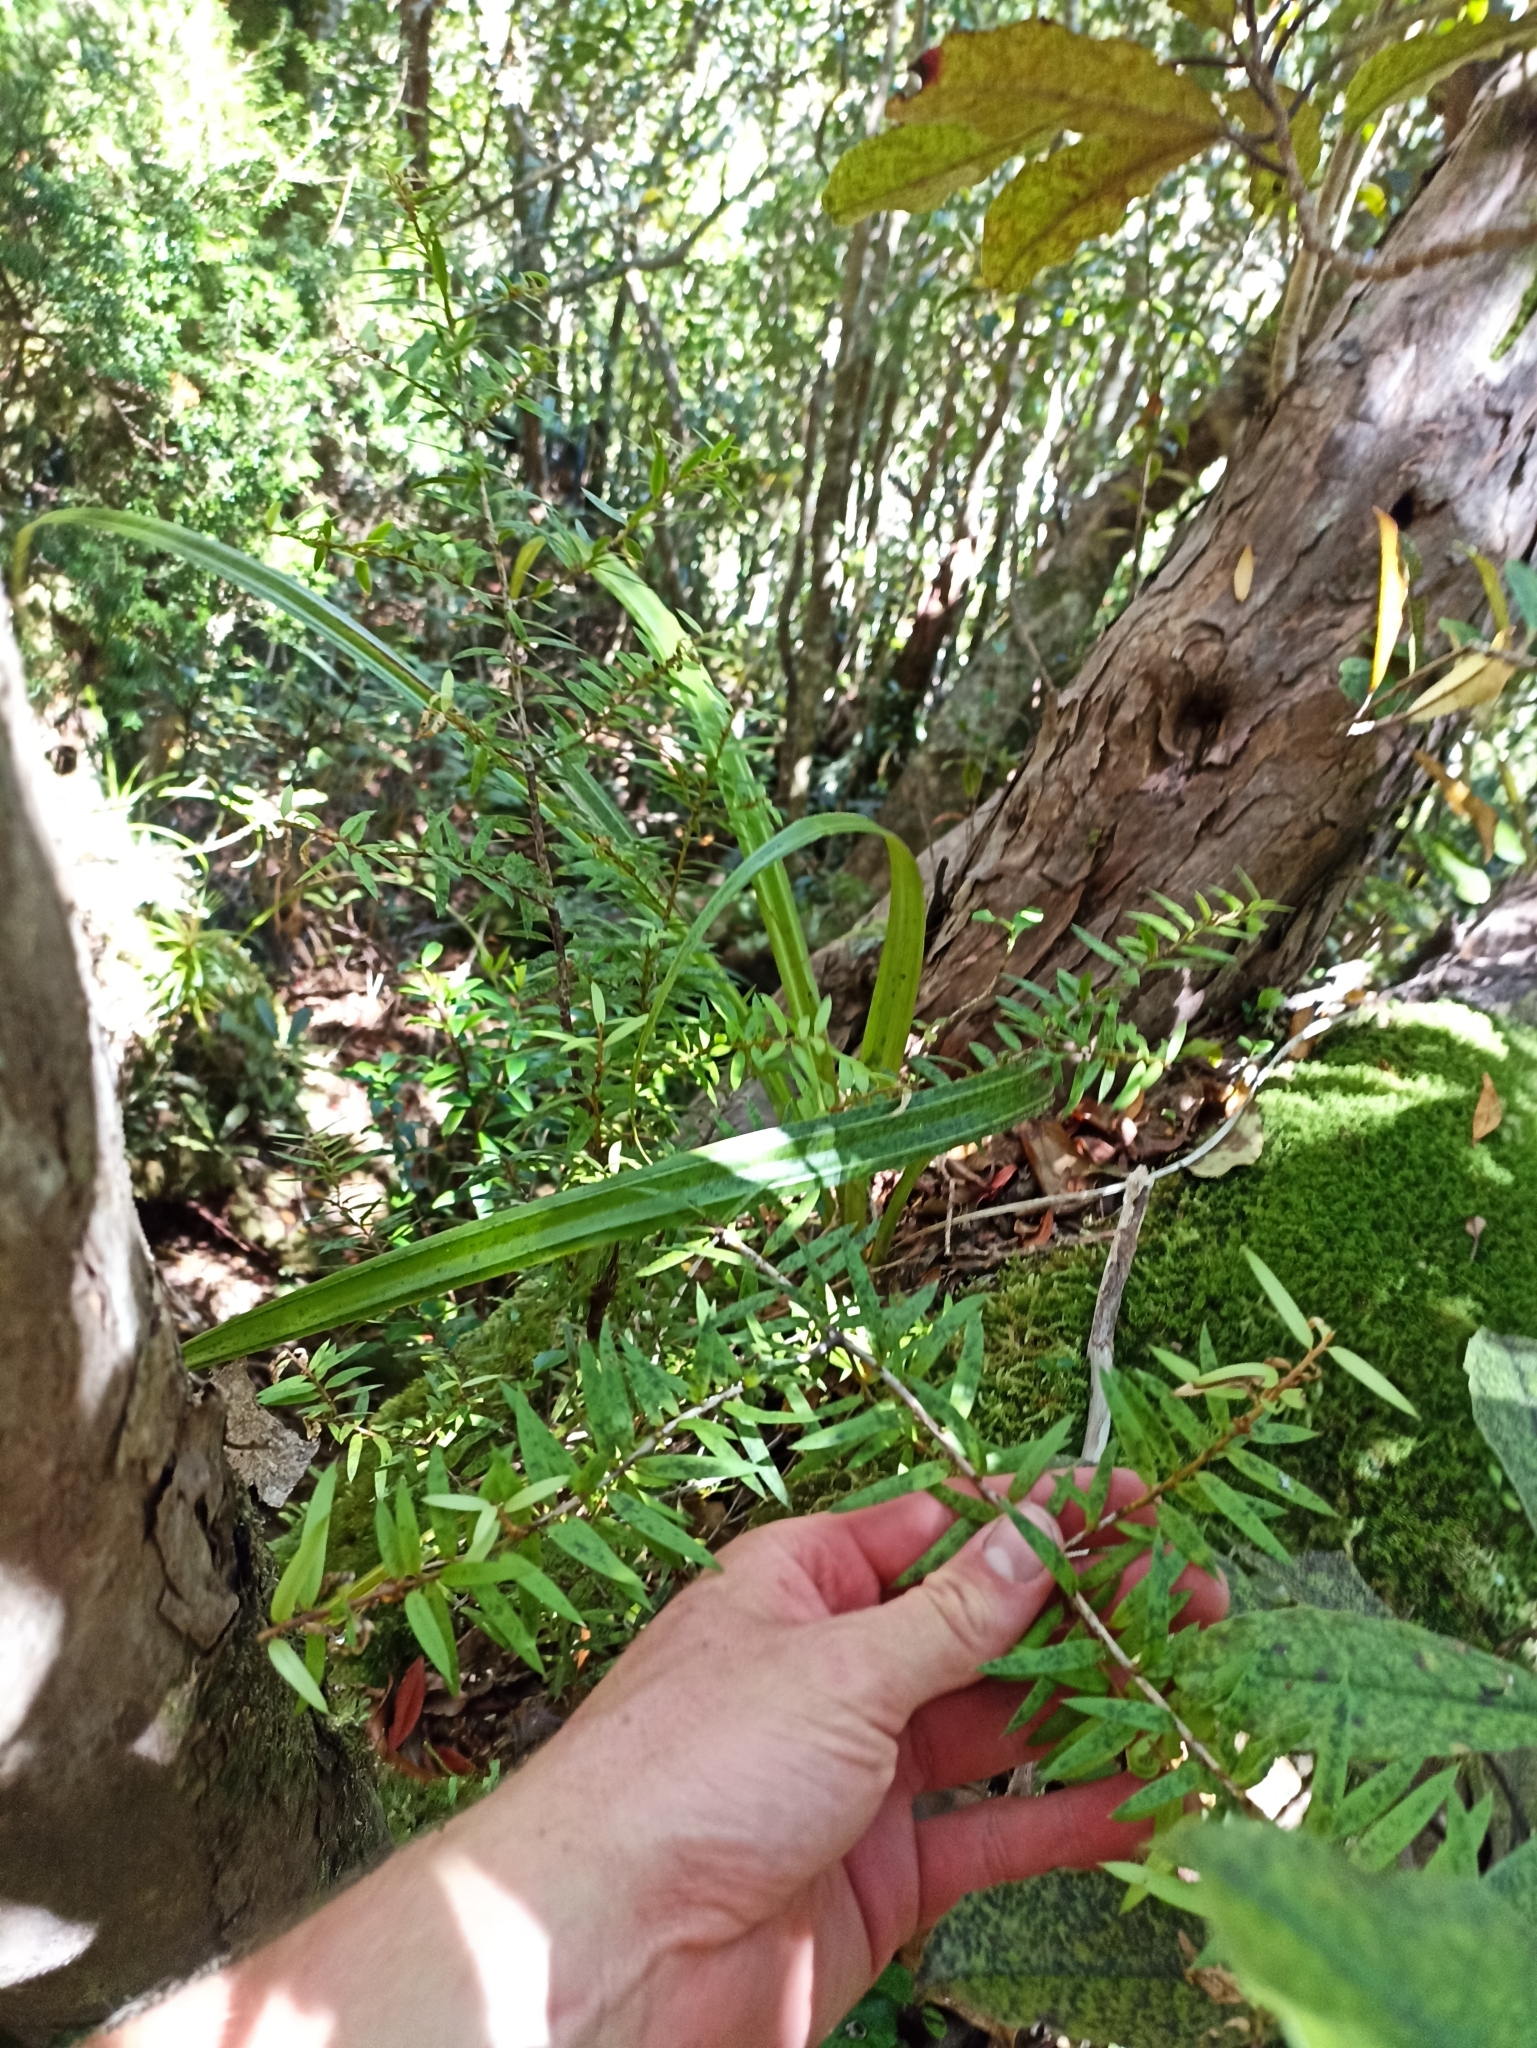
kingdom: Plantae
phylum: Tracheophyta
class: Pinopsida
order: Pinales
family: Podocarpaceae
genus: Podocarpus
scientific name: Podocarpus laetus
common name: Hall's totara
